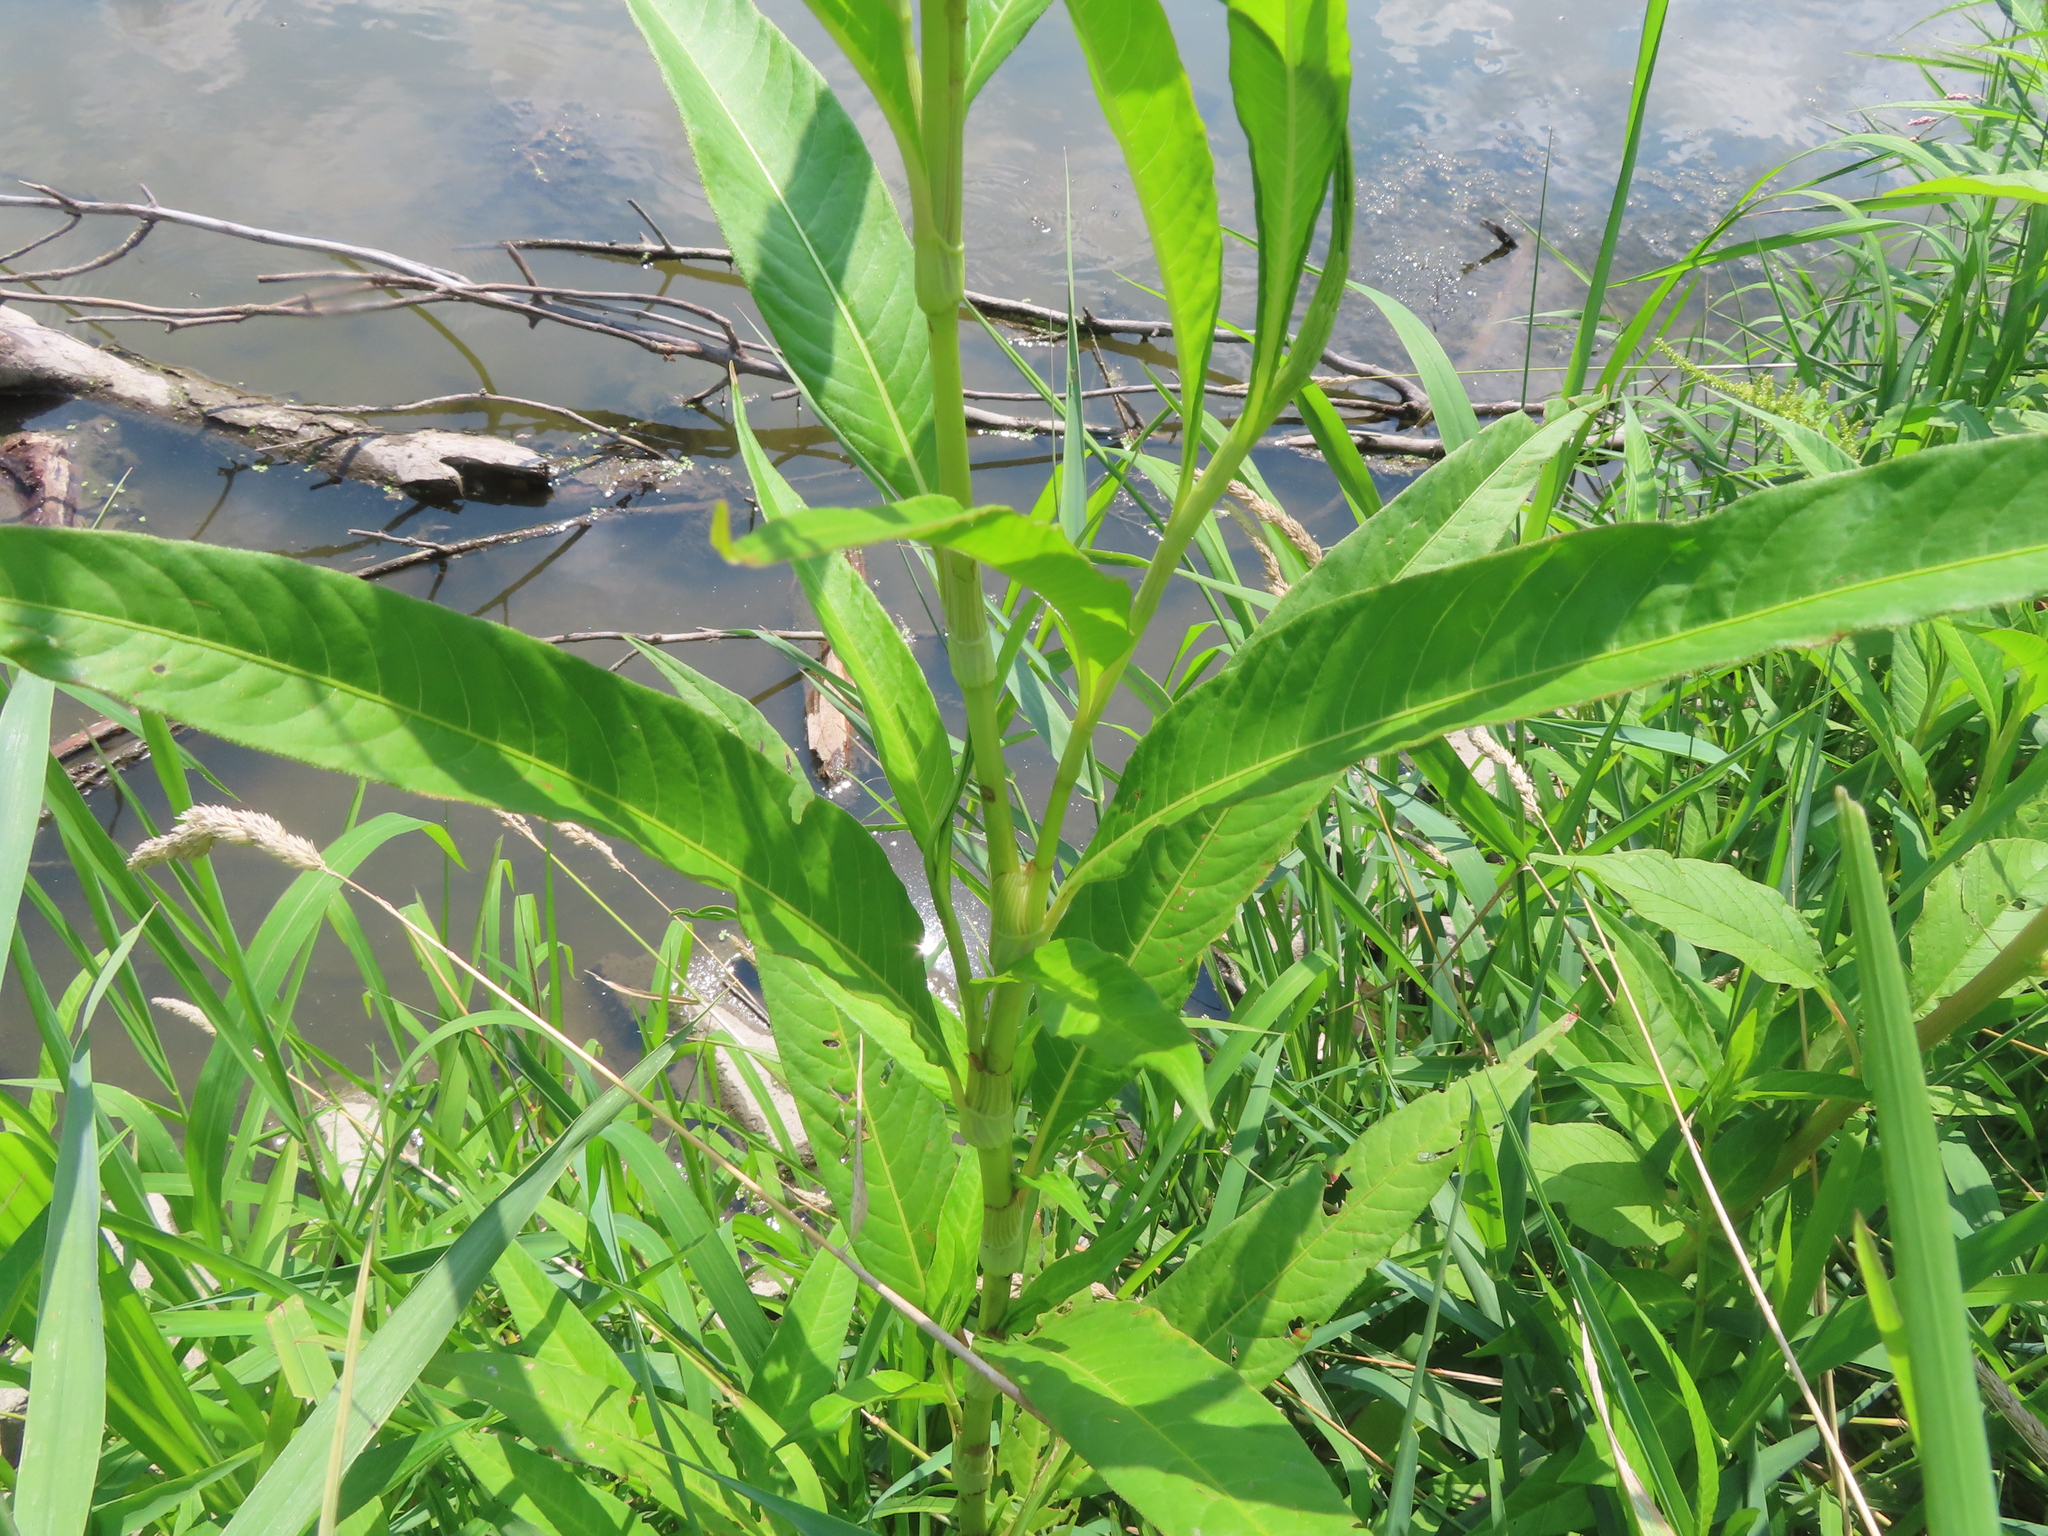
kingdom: Plantae
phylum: Tracheophyta
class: Magnoliopsida
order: Caryophyllales
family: Polygonaceae
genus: Persicaria
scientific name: Persicaria lapathifolia
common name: Curlytop knotweed
